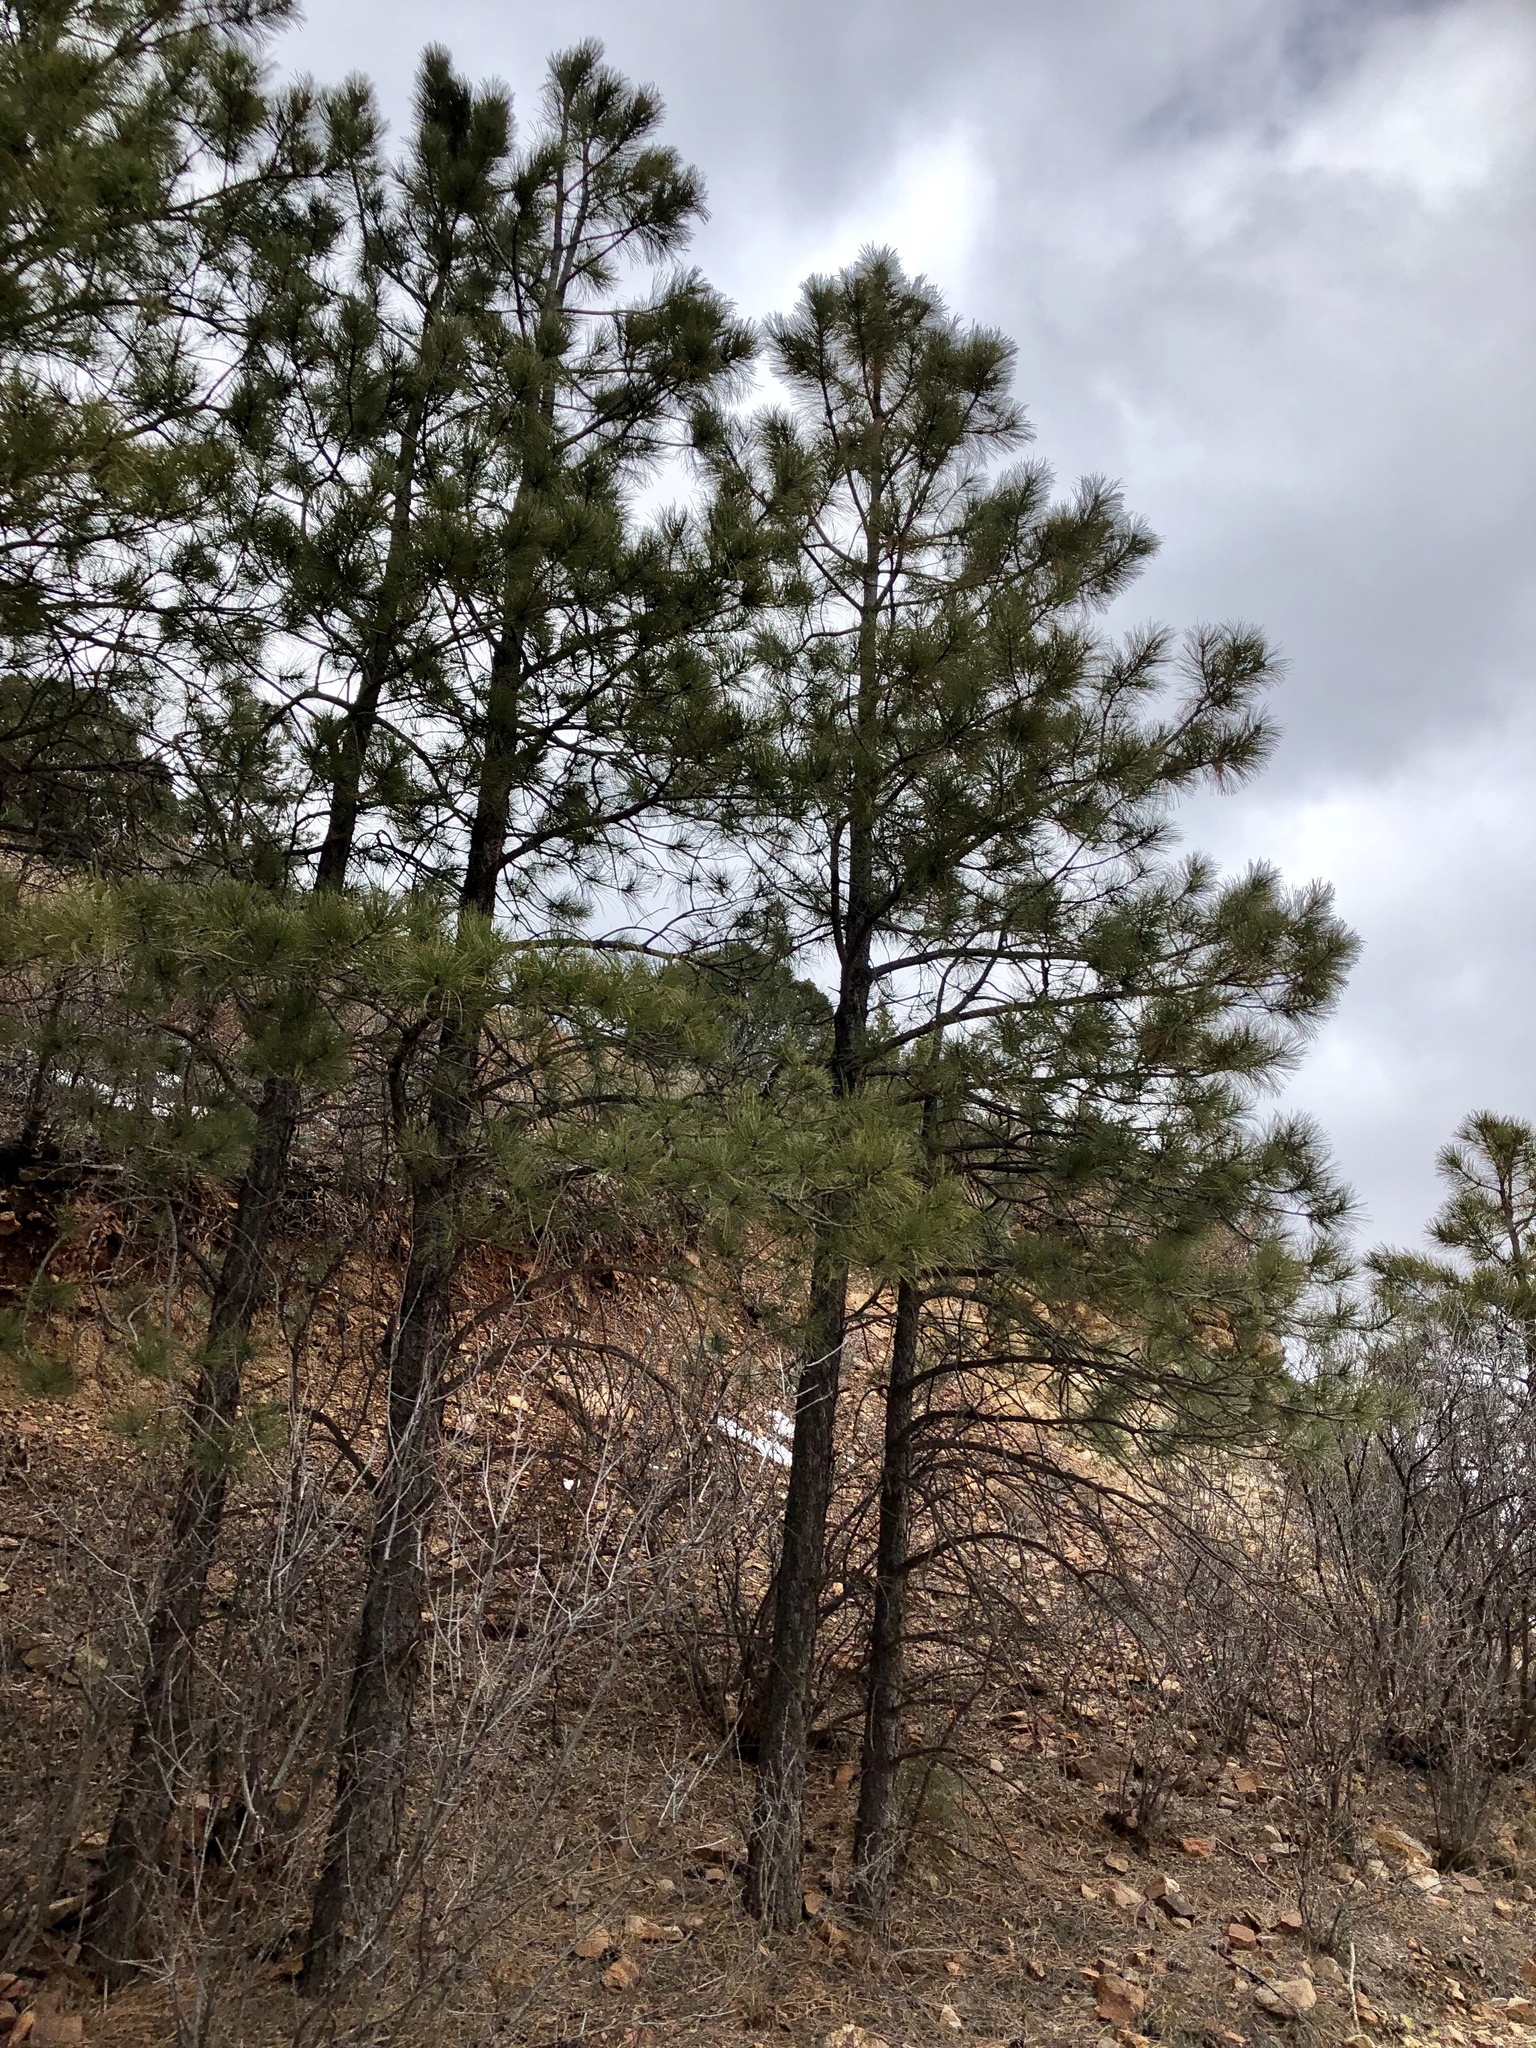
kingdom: Plantae
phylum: Tracheophyta
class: Pinopsida
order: Pinales
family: Pinaceae
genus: Pinus
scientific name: Pinus ponderosa
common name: Western yellow-pine
